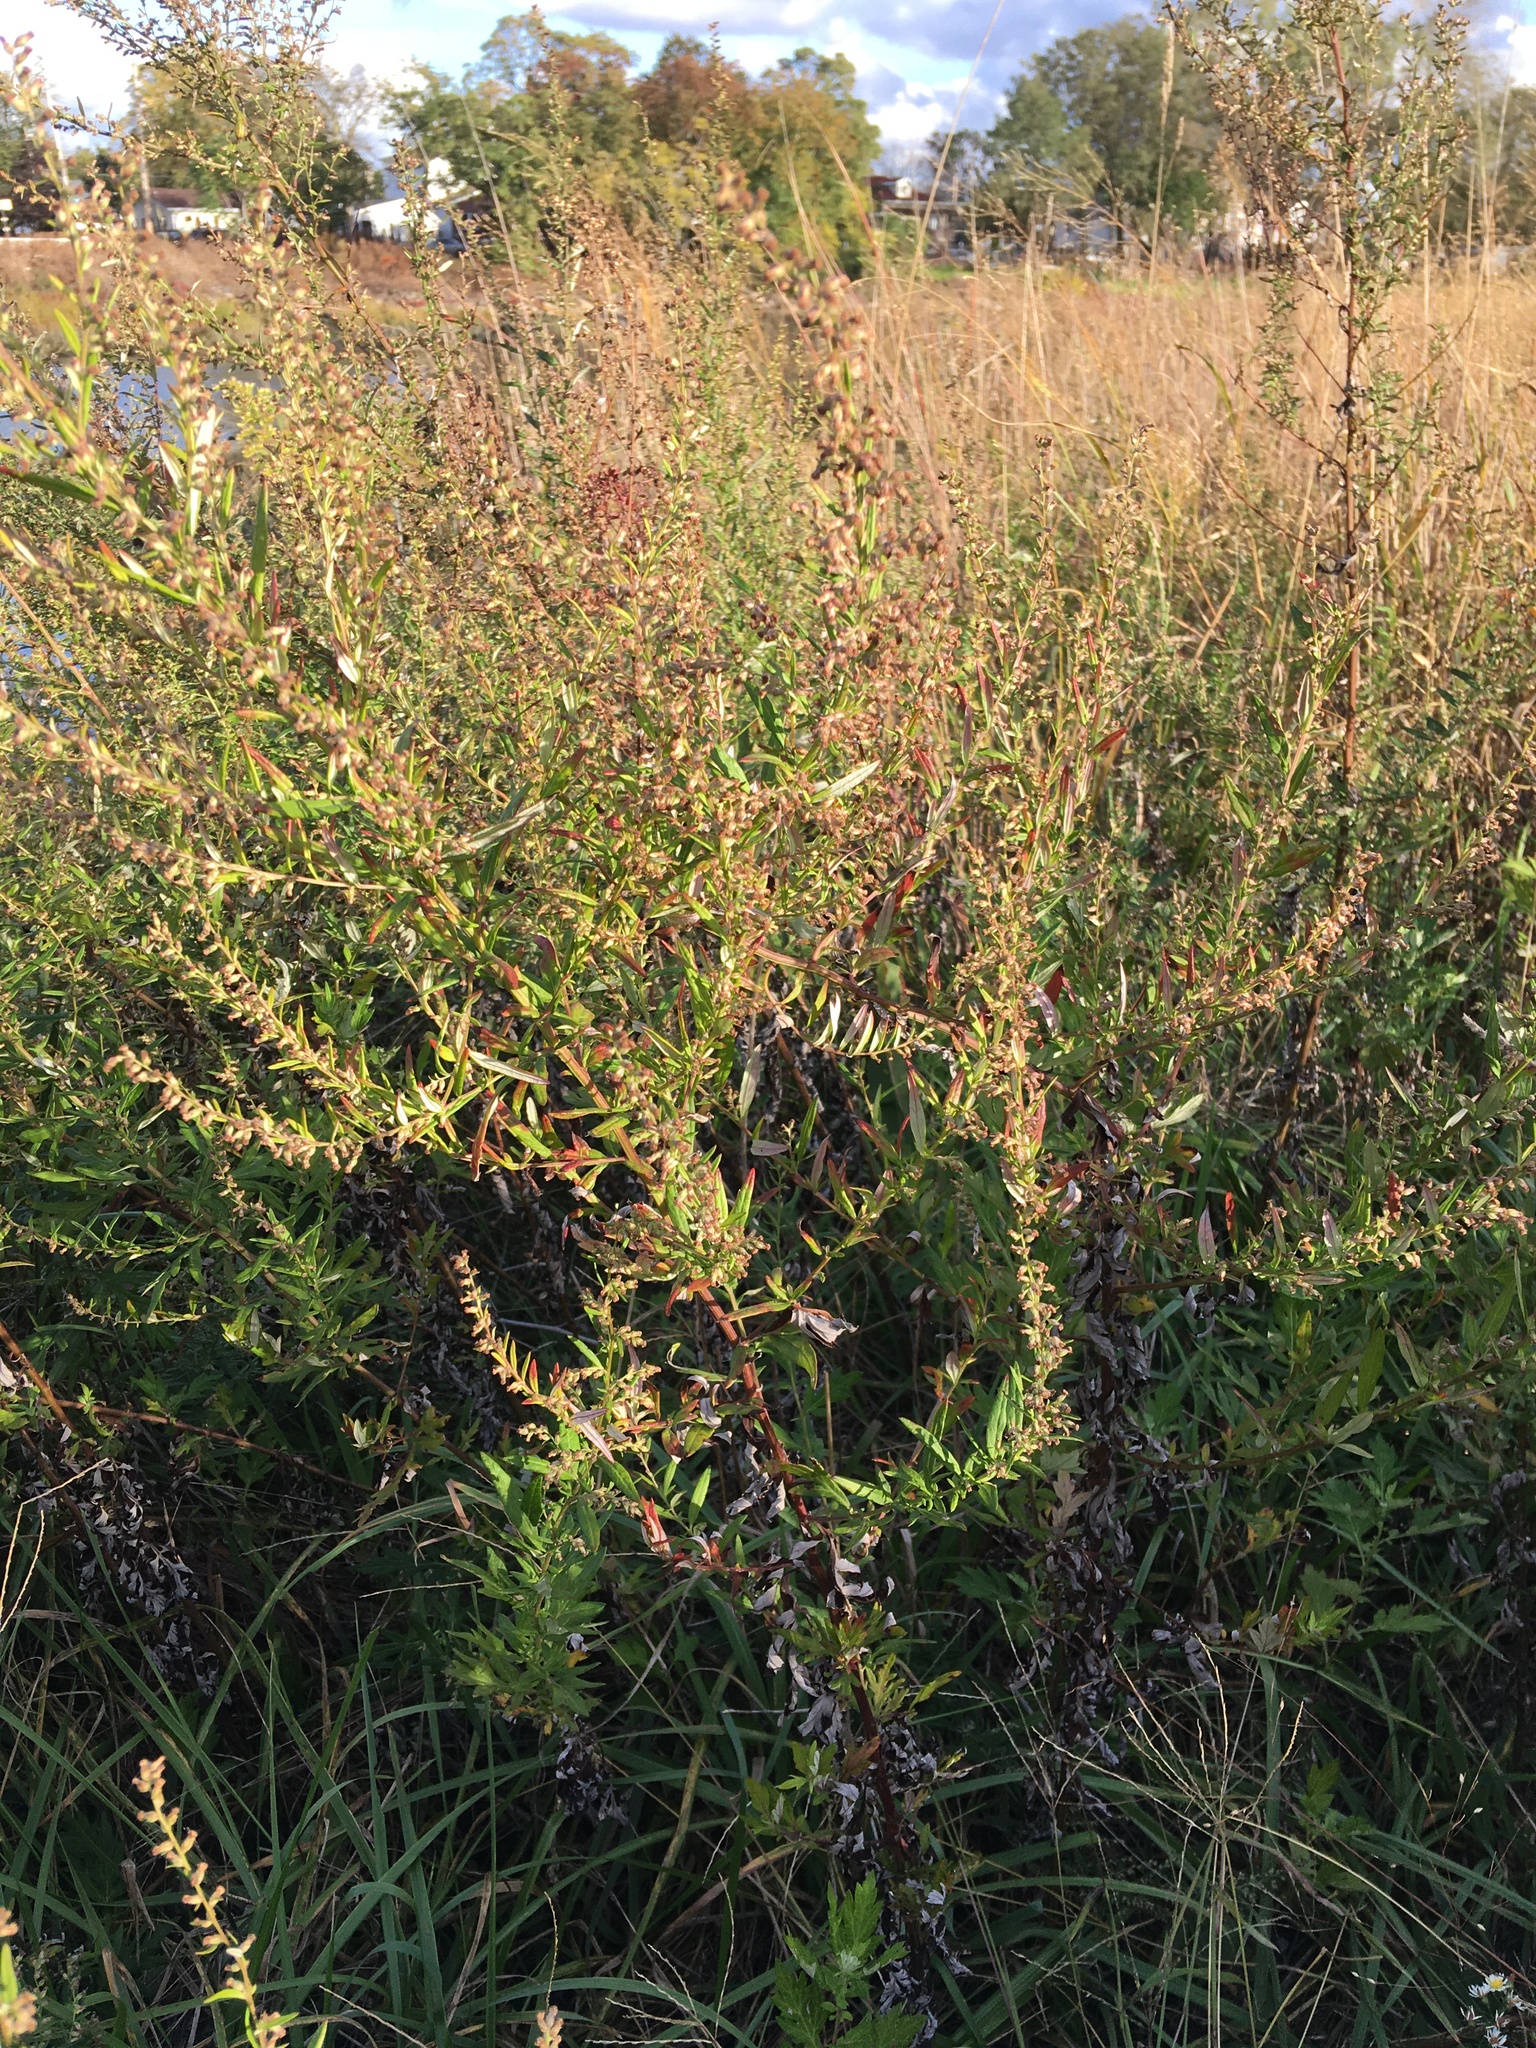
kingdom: Plantae
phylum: Tracheophyta
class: Magnoliopsida
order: Asterales
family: Asteraceae
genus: Artemisia
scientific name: Artemisia vulgaris
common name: Mugwort
